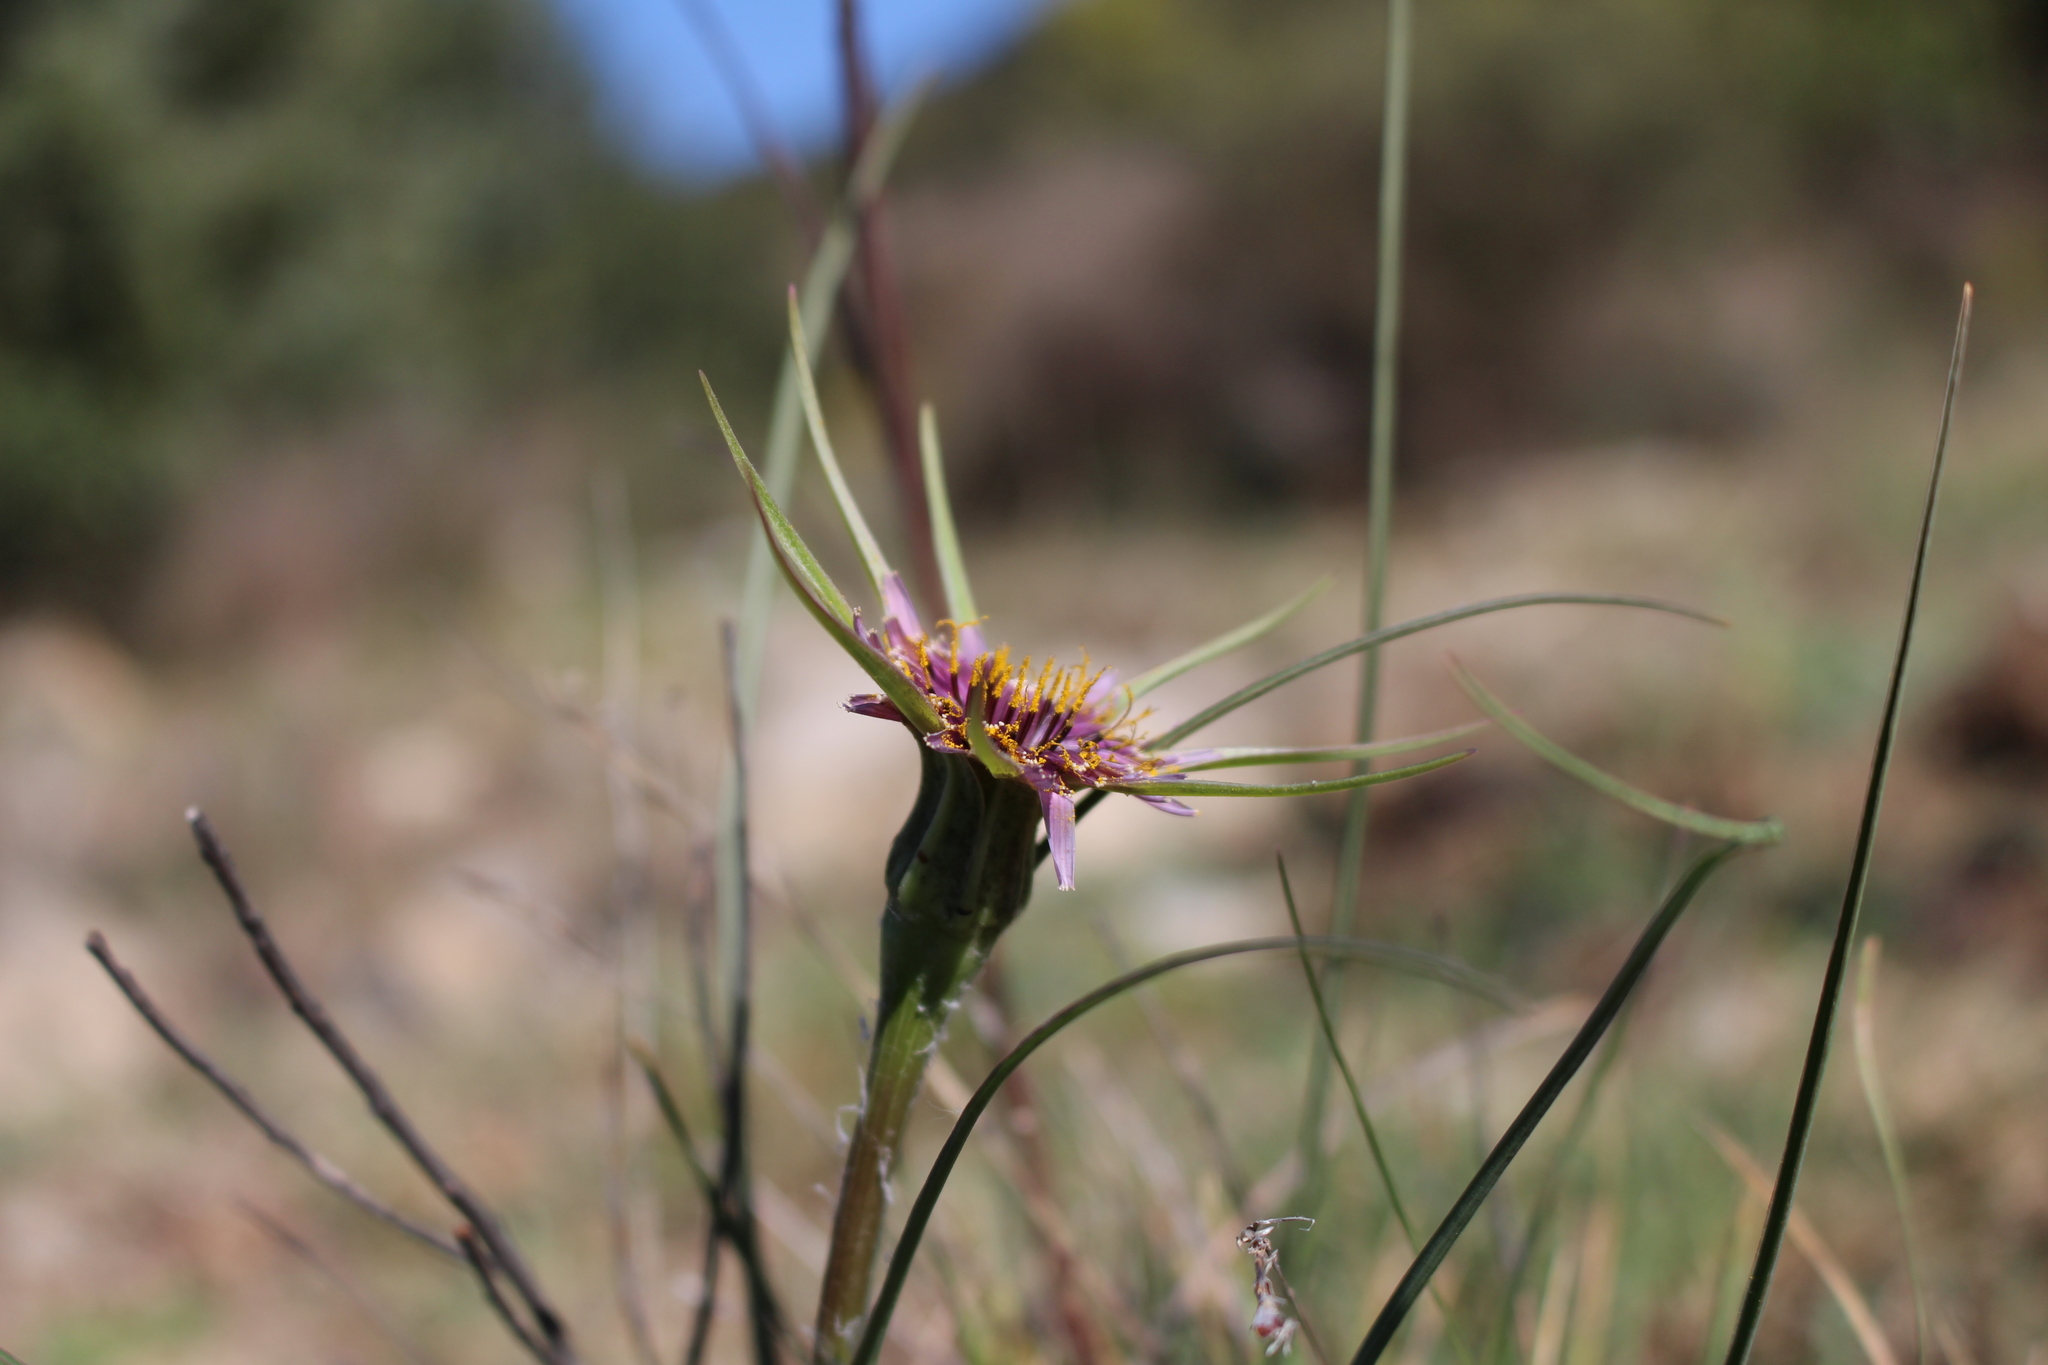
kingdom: Plantae
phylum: Tracheophyta
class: Magnoliopsida
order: Asterales
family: Asteraceae
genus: Tragopogon
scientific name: Tragopogon porrifolius
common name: Salsify
